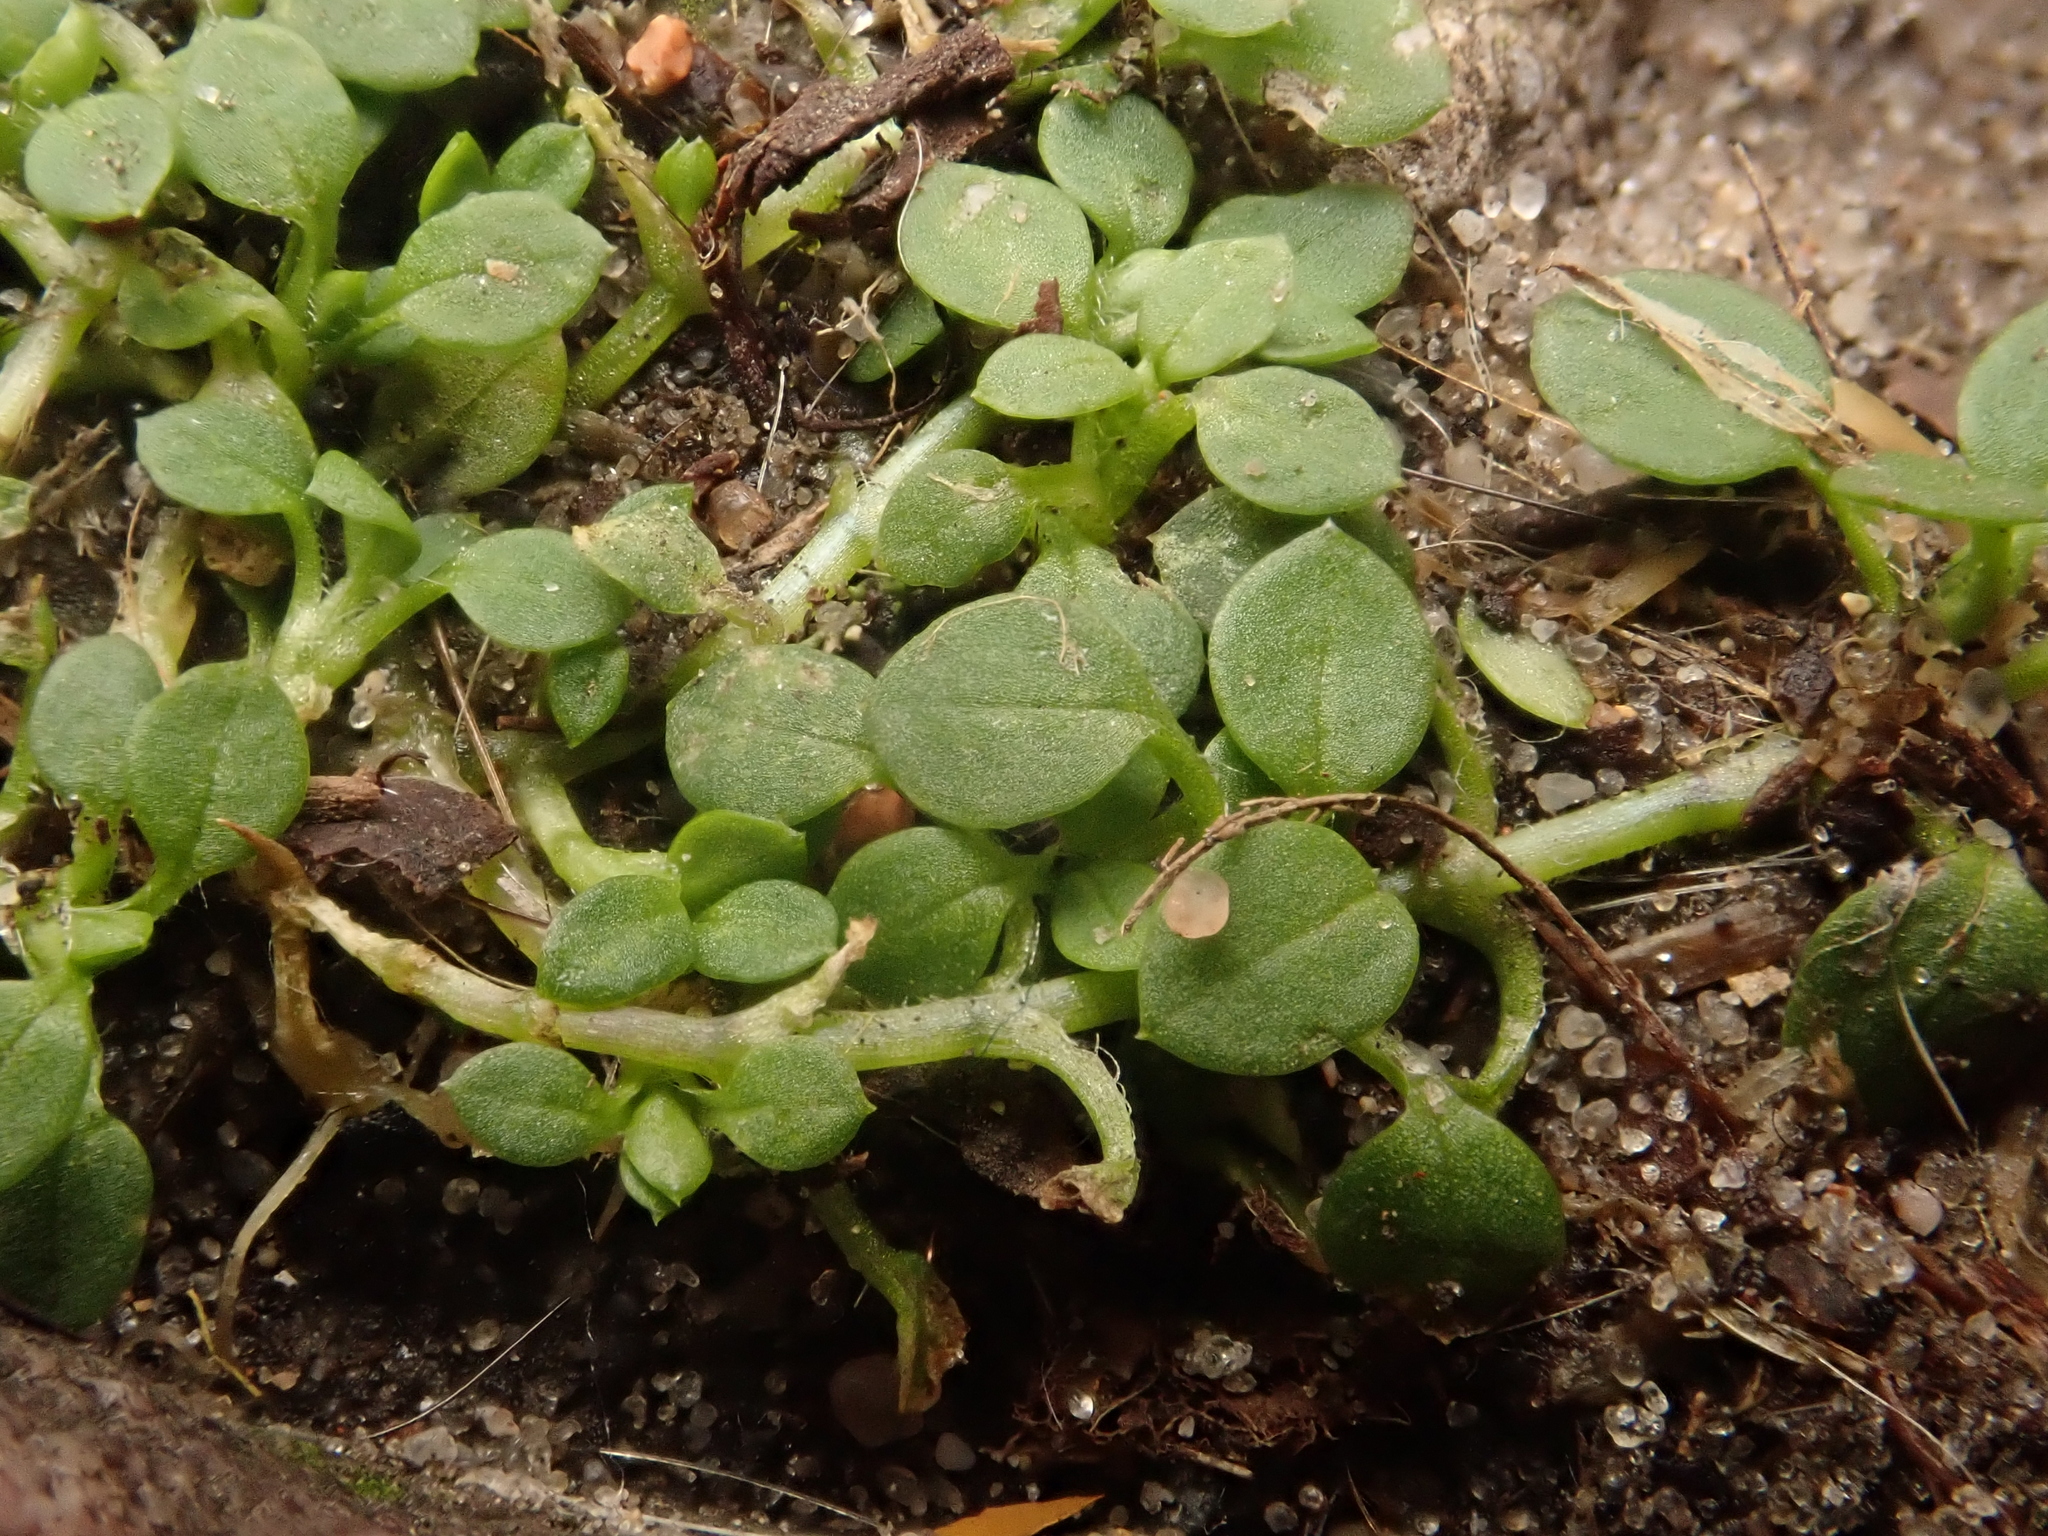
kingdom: Plantae
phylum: Tracheophyta
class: Magnoliopsida
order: Caryophyllales
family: Caryophyllaceae
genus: Stellaria
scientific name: Stellaria media
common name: Common chickweed
